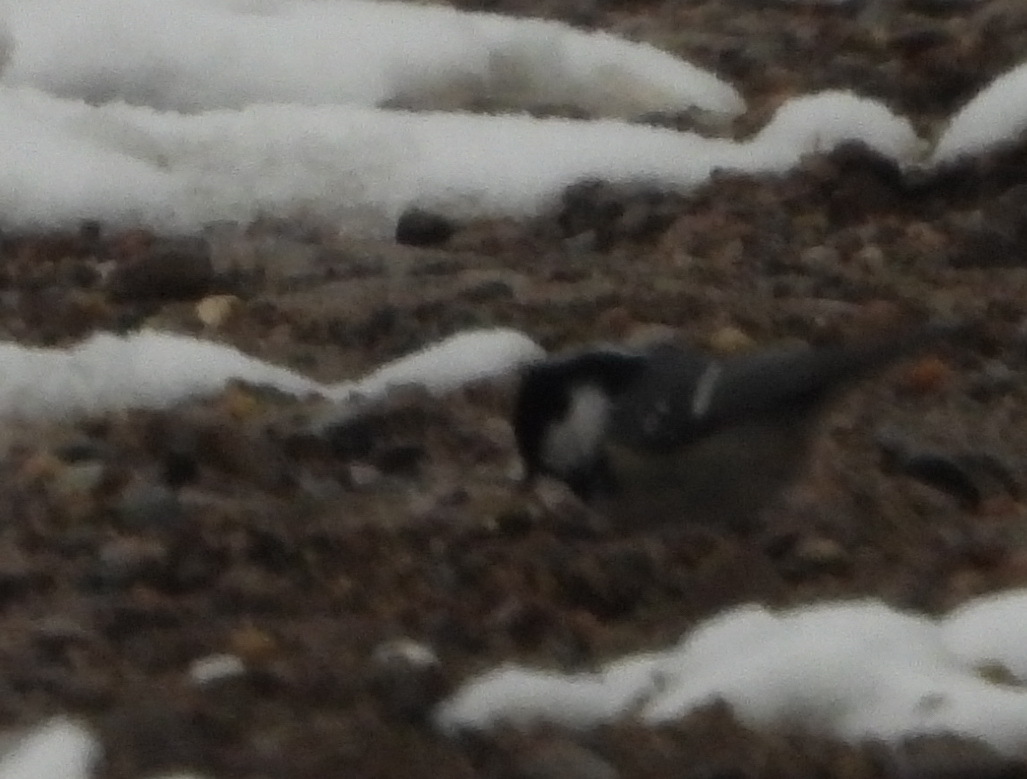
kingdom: Animalia
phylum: Chordata
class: Aves
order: Passeriformes
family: Paridae
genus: Periparus
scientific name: Periparus ater
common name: Coal tit
